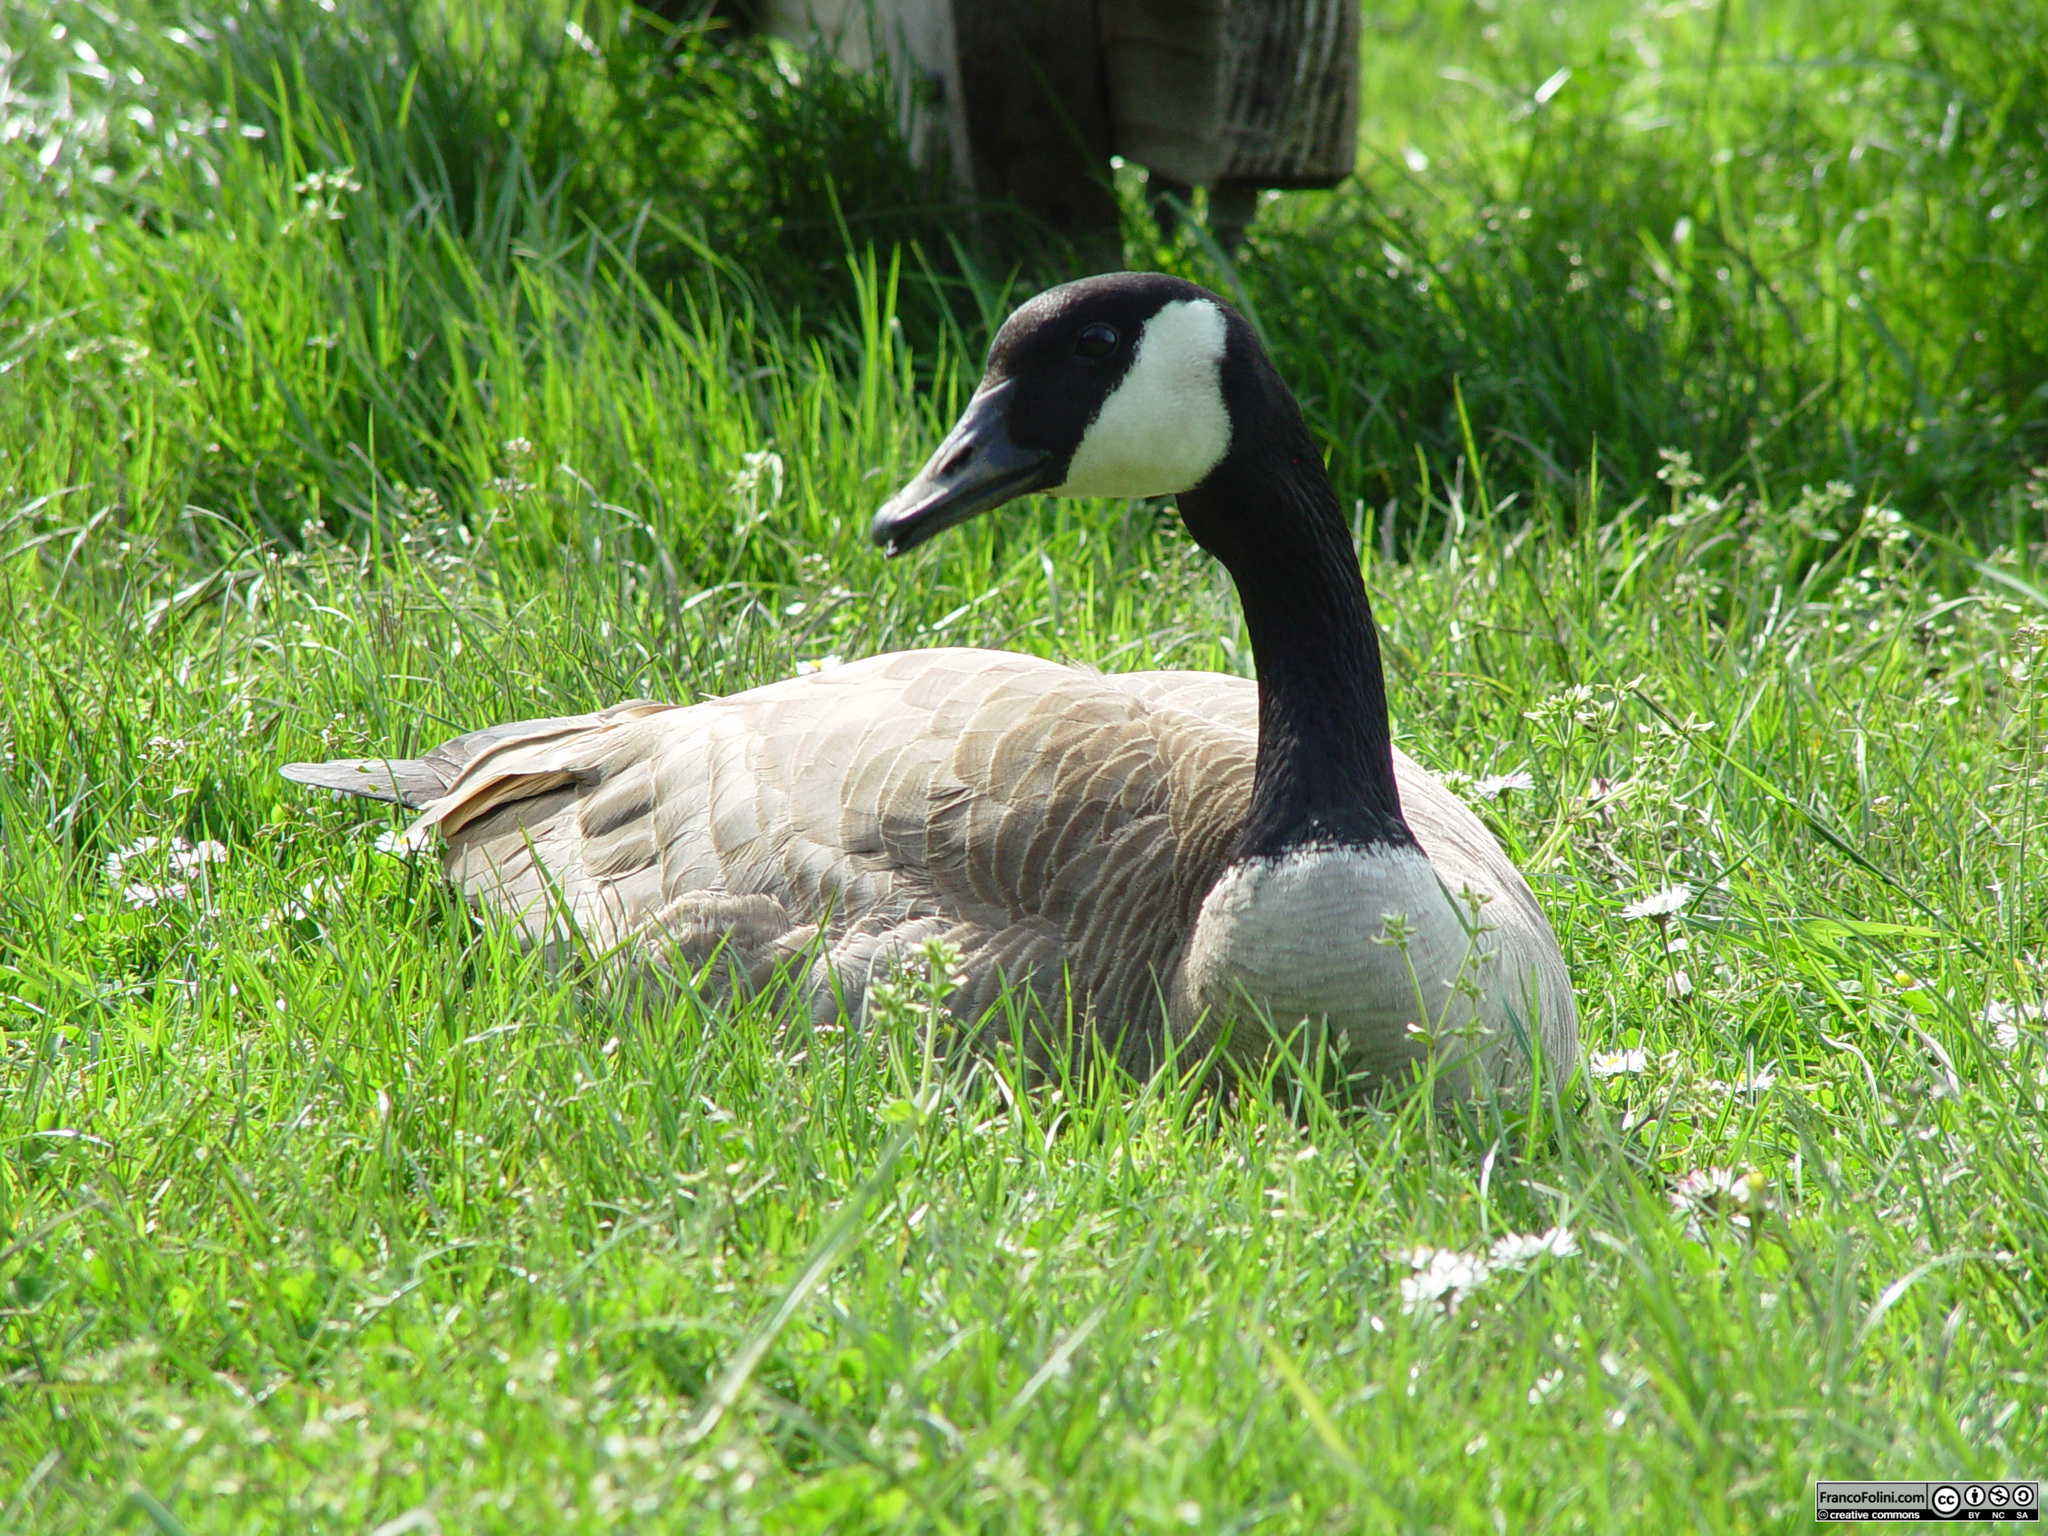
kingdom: Animalia
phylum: Chordata
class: Aves
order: Anseriformes
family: Anatidae
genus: Branta
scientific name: Branta canadensis
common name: Canada goose
